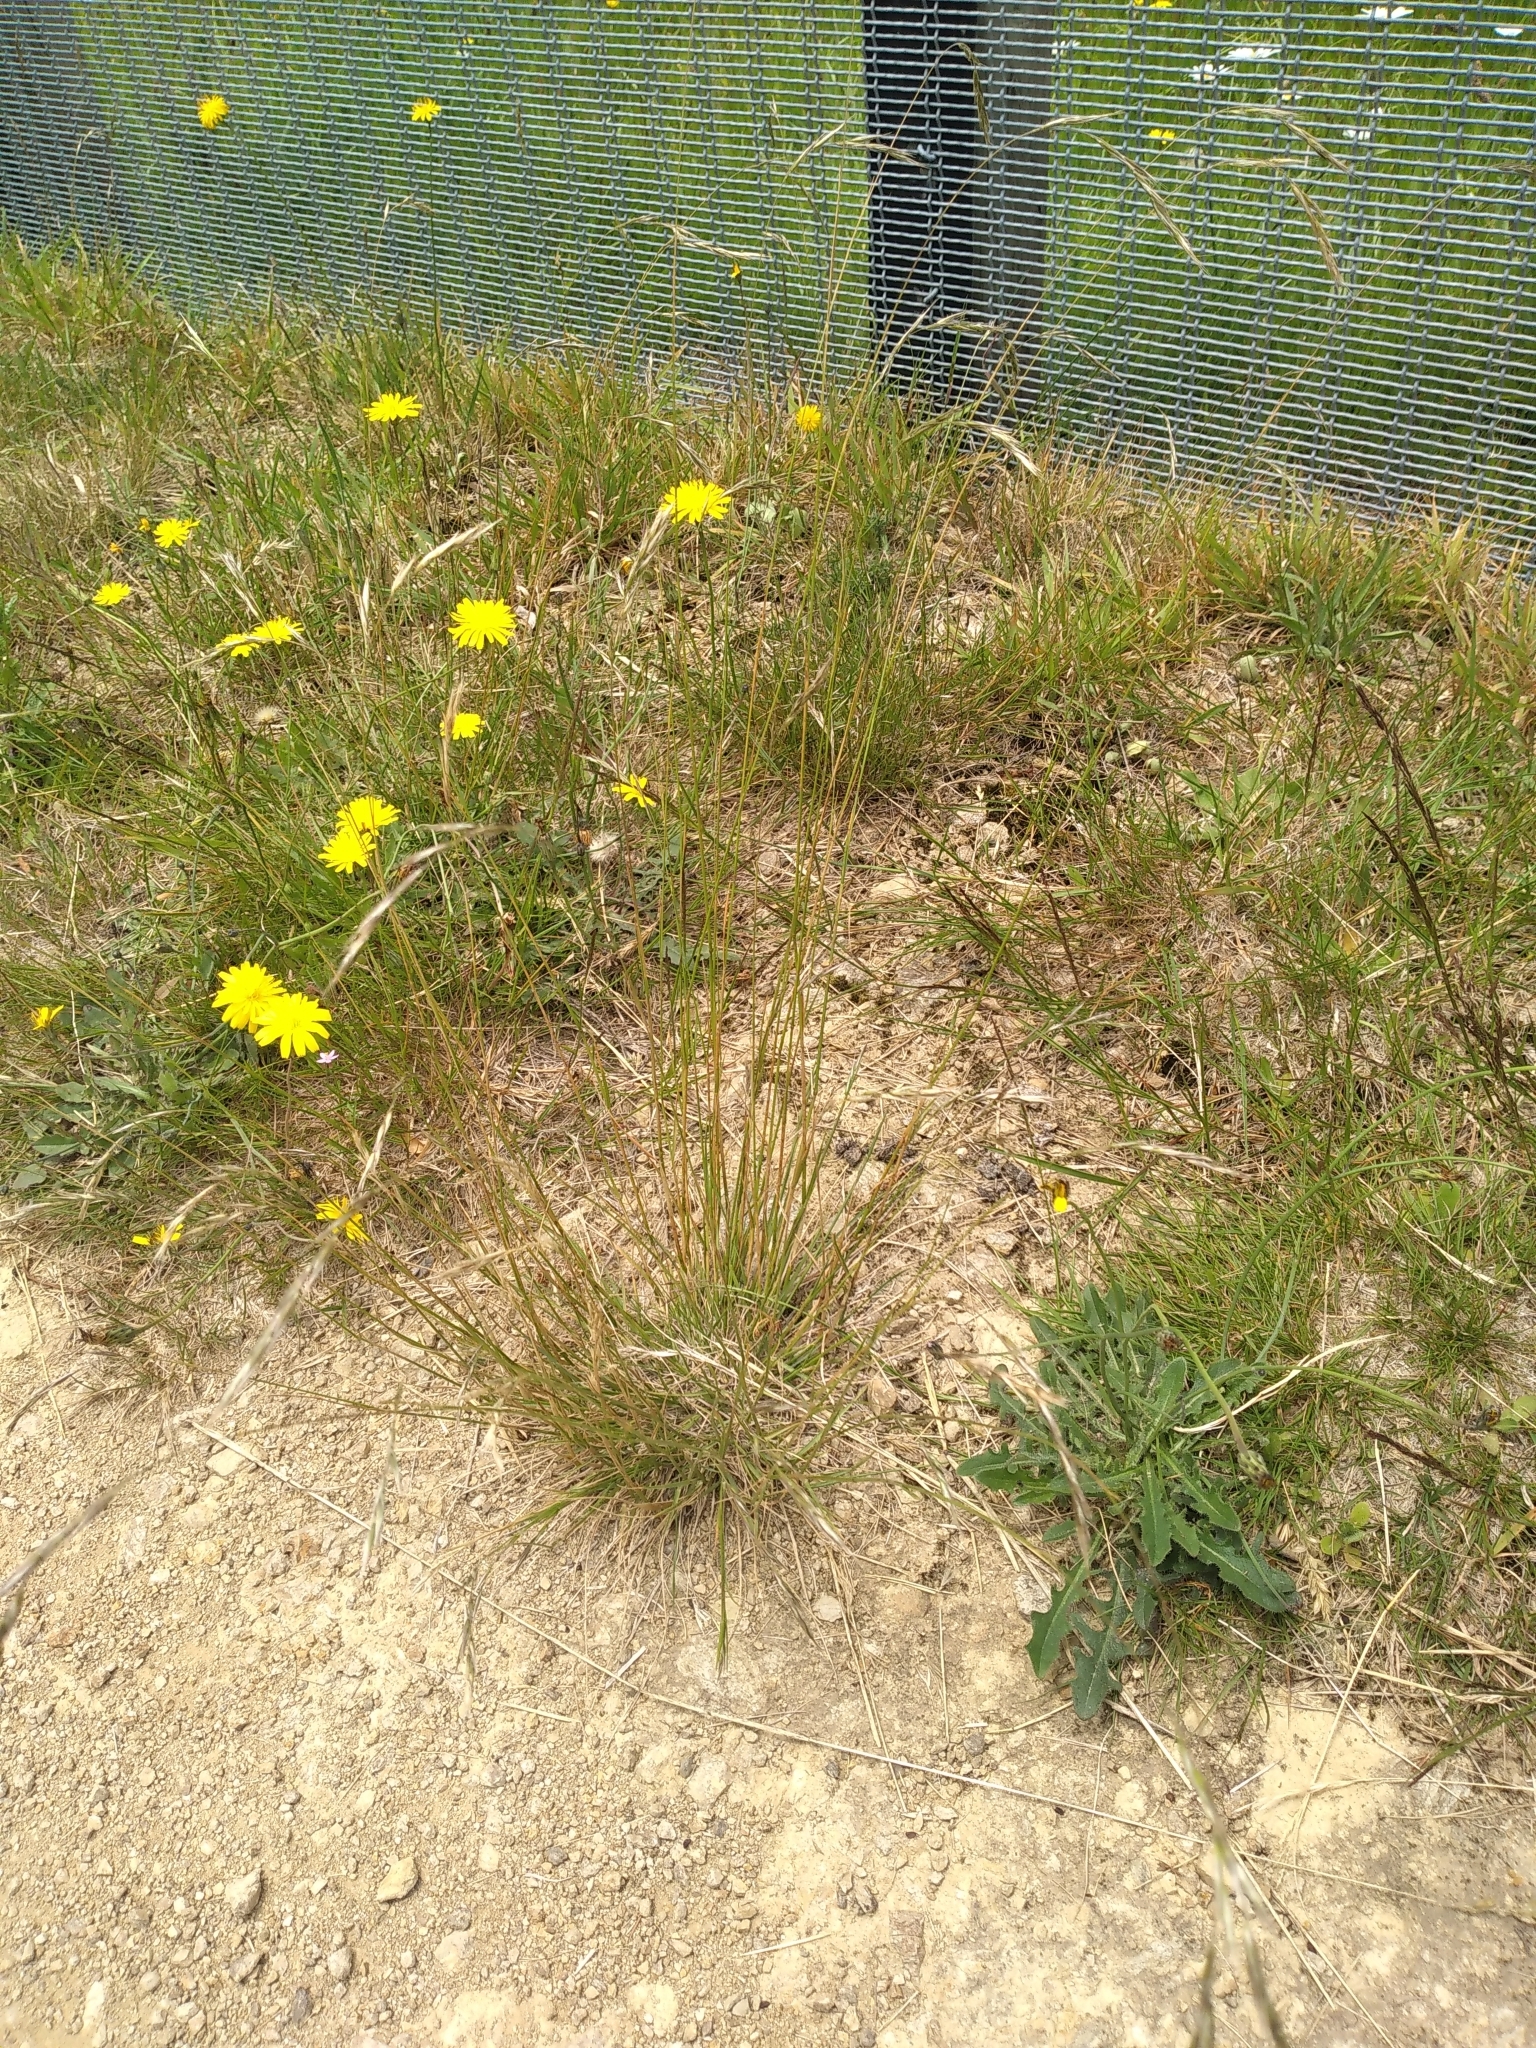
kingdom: Plantae
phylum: Tracheophyta
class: Liliopsida
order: Poales
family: Poaceae
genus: Rytidosperma
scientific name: Rytidosperma clavatum
